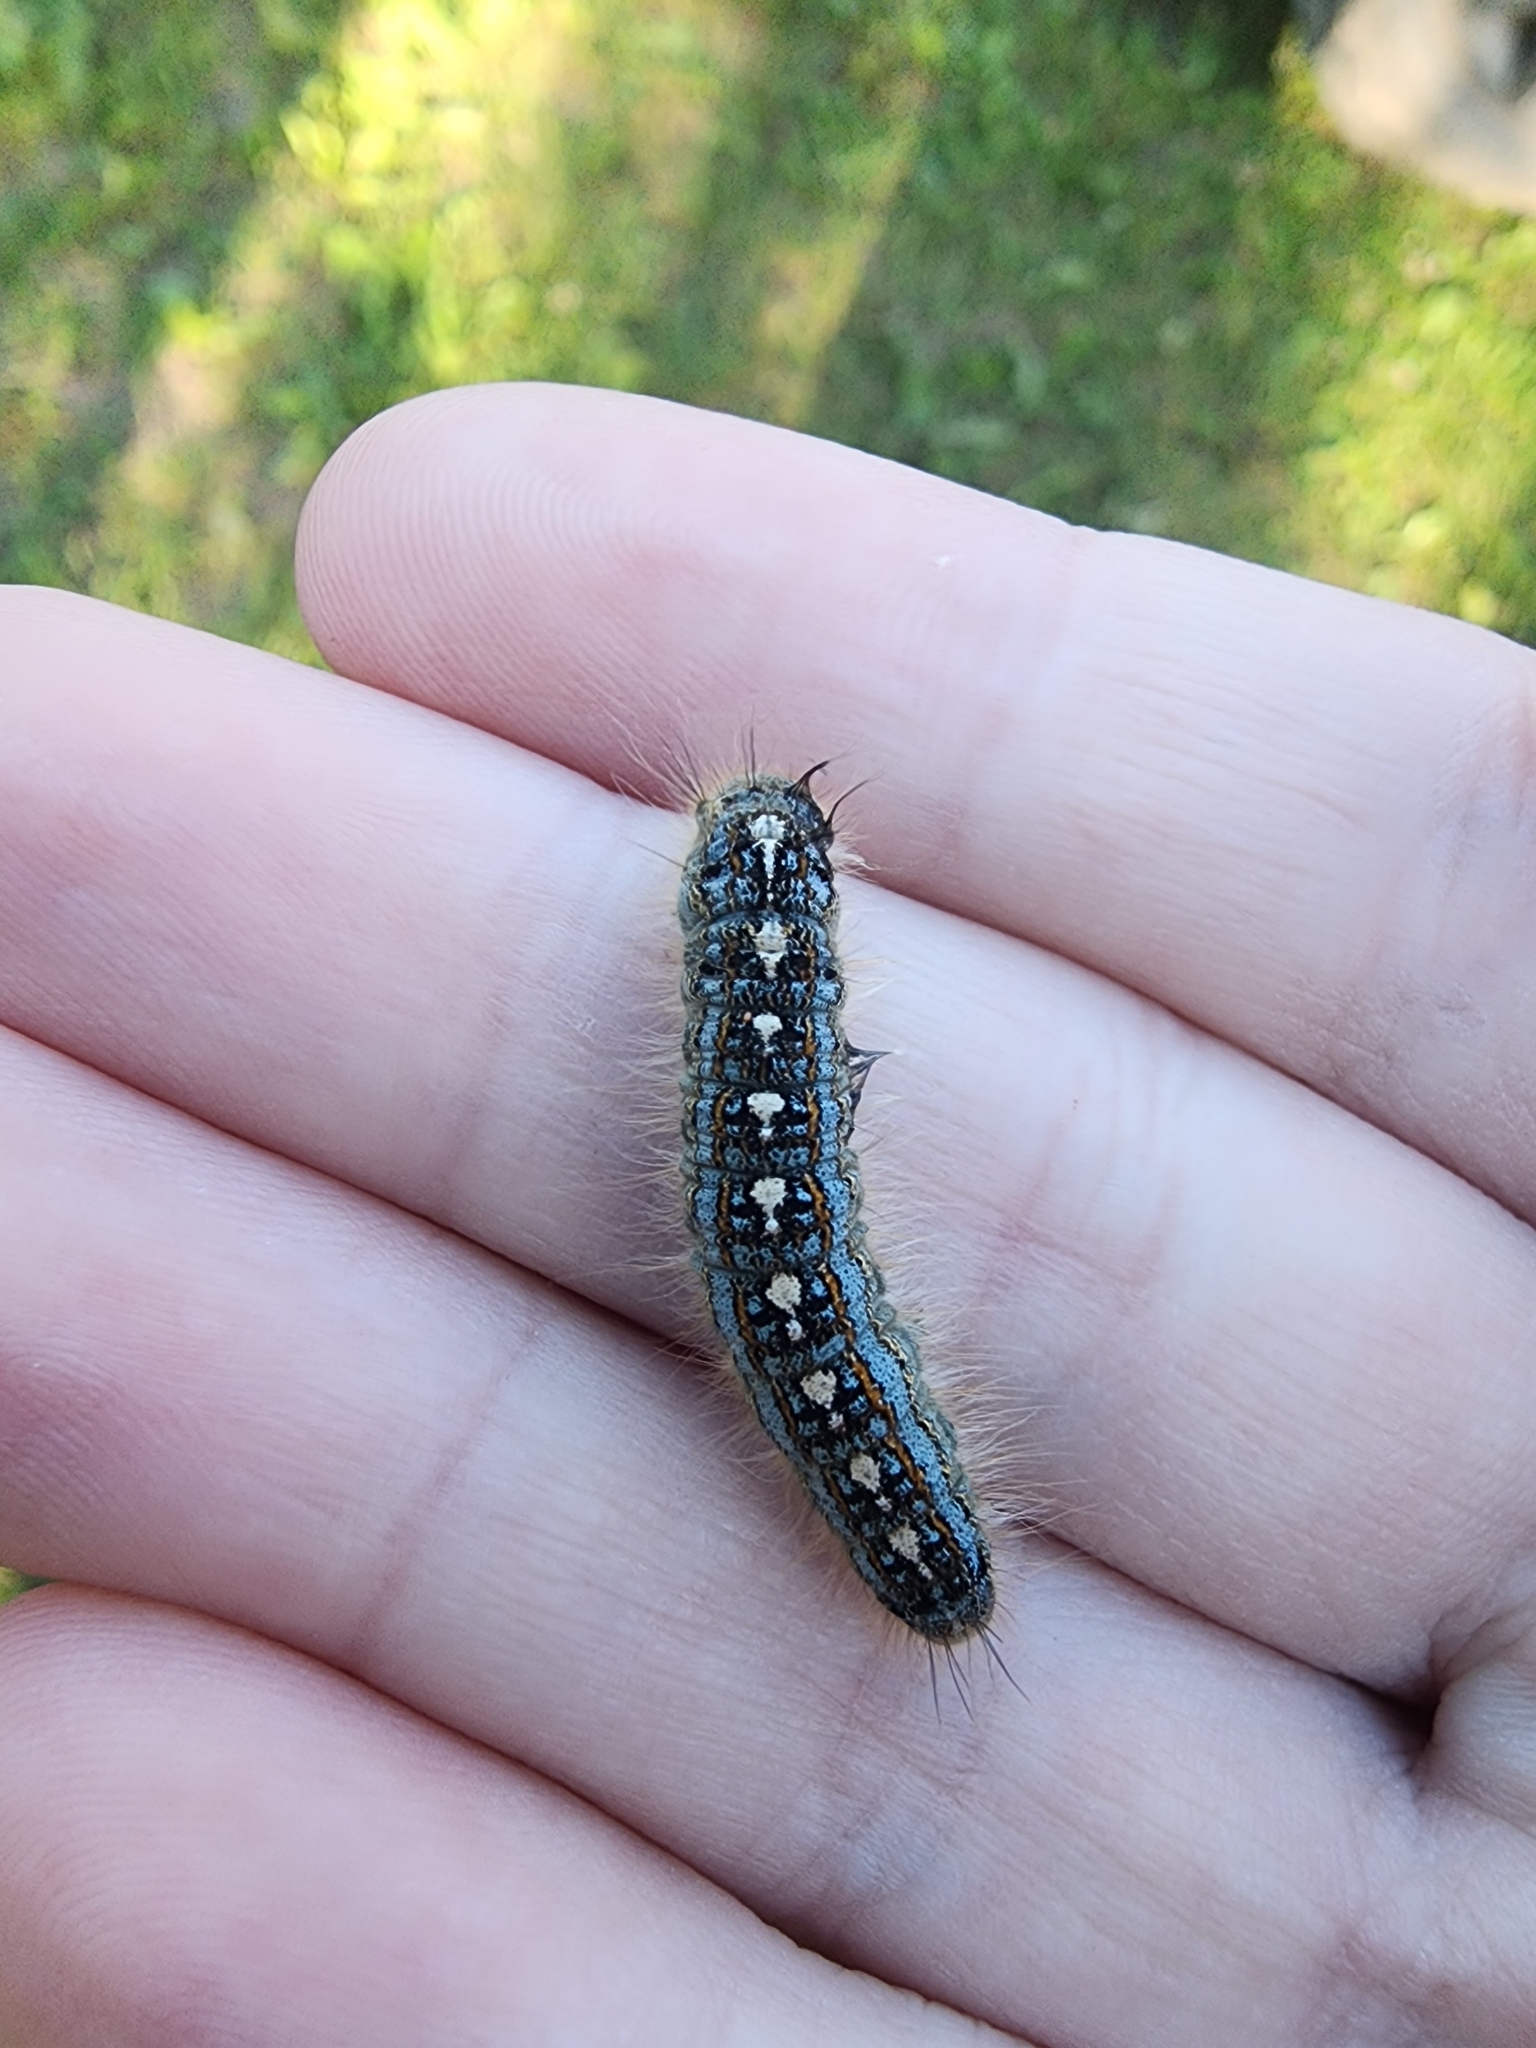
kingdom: Animalia
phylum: Arthropoda
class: Insecta
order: Lepidoptera
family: Lasiocampidae
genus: Malacosoma
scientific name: Malacosoma disstria
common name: Forest tent caterpillar
